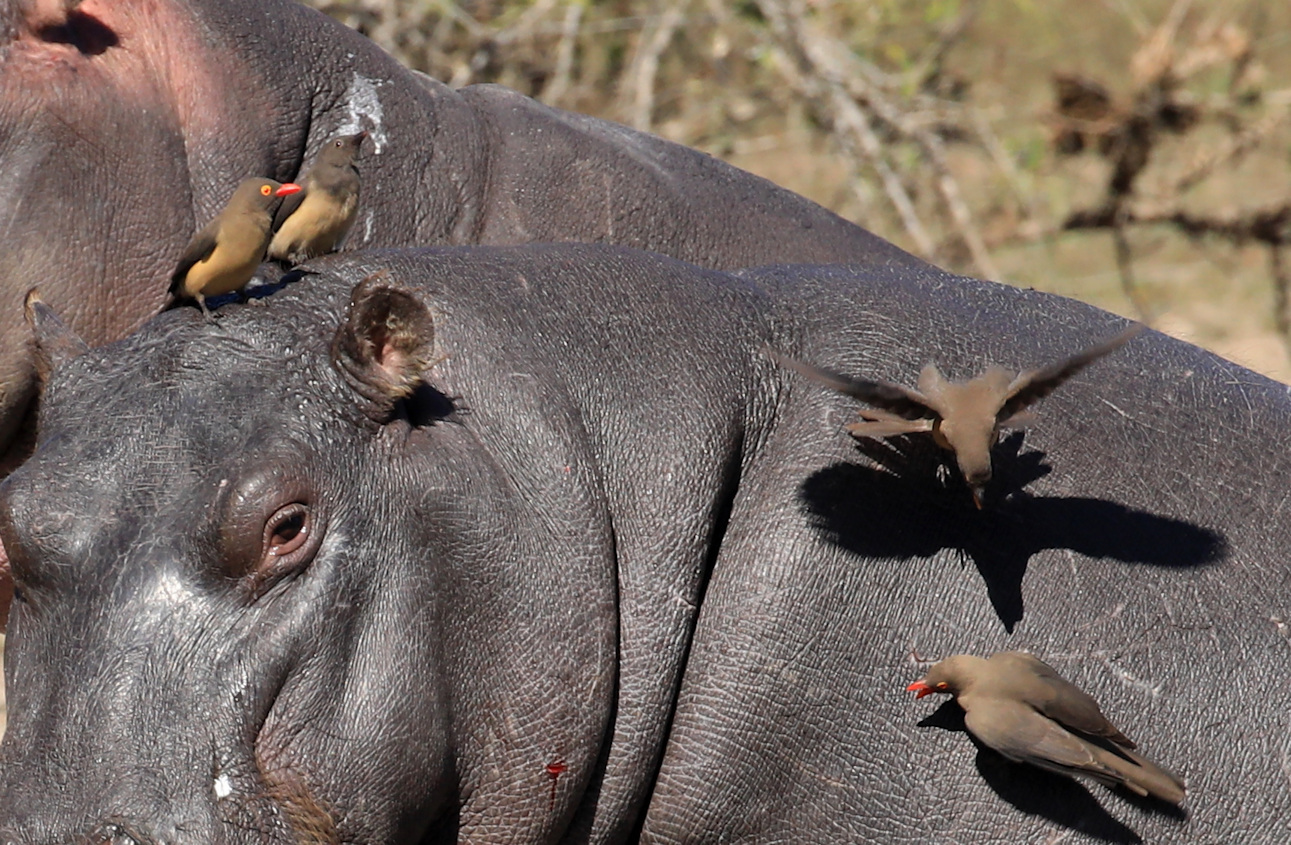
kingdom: Animalia
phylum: Chordata
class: Aves
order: Passeriformes
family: Buphagidae
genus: Buphagus
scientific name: Buphagus erythrorhynchus
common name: Red-billed oxpecker
